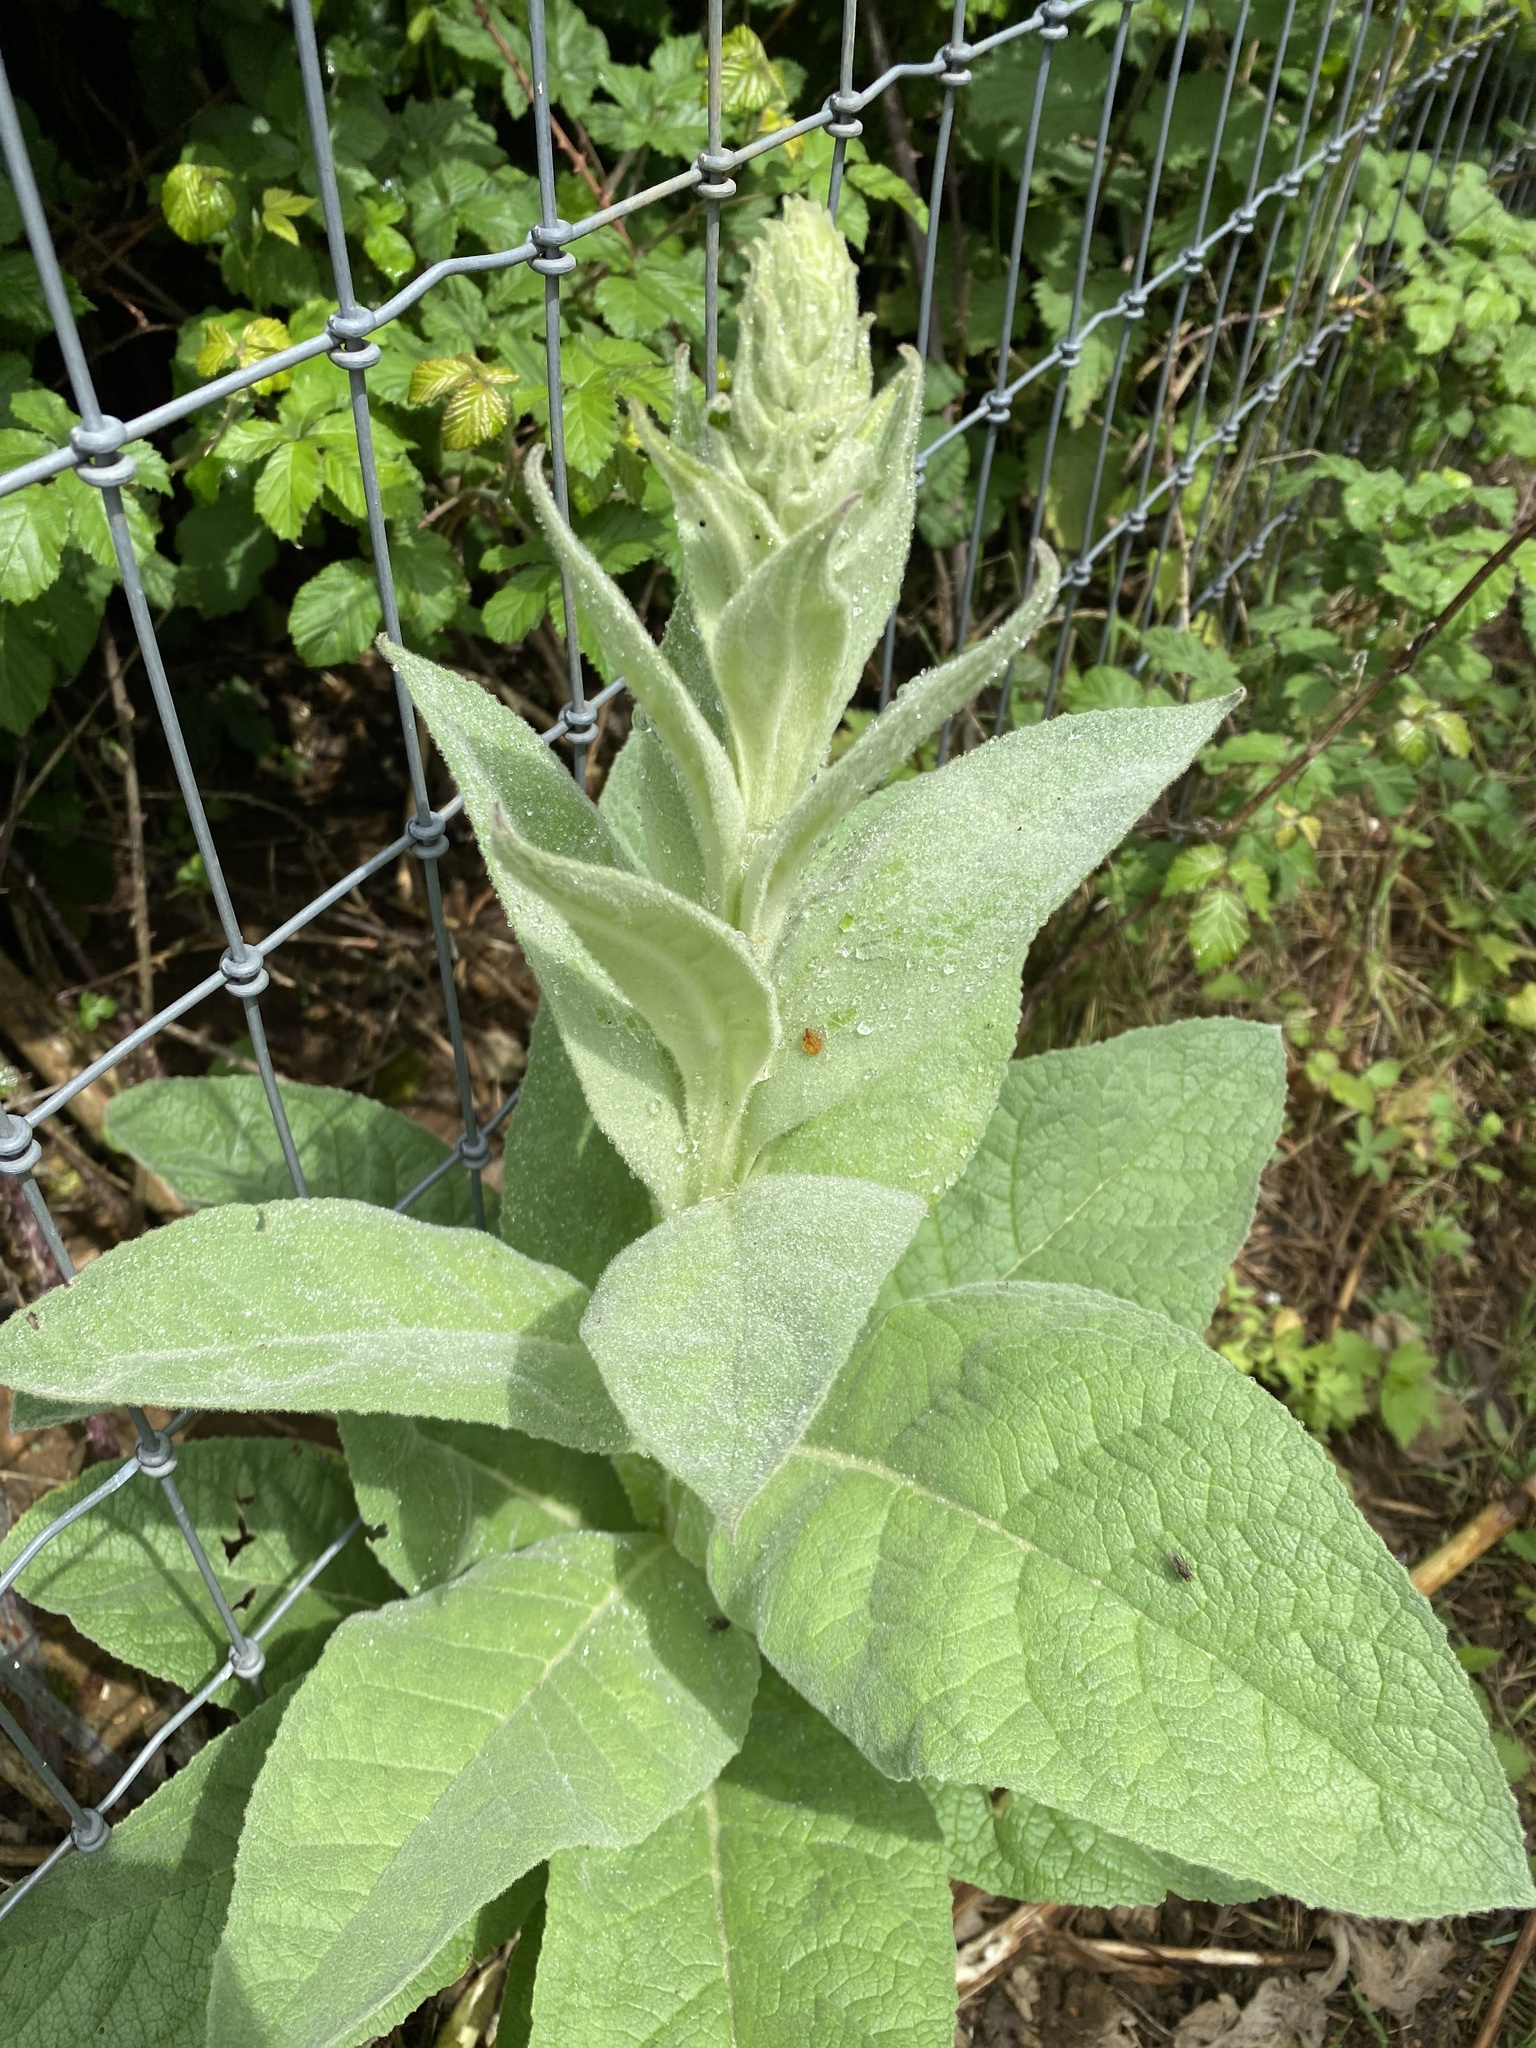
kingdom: Plantae
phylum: Tracheophyta
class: Magnoliopsida
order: Lamiales
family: Scrophulariaceae
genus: Verbascum
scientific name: Verbascum thapsus
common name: Common mullein
